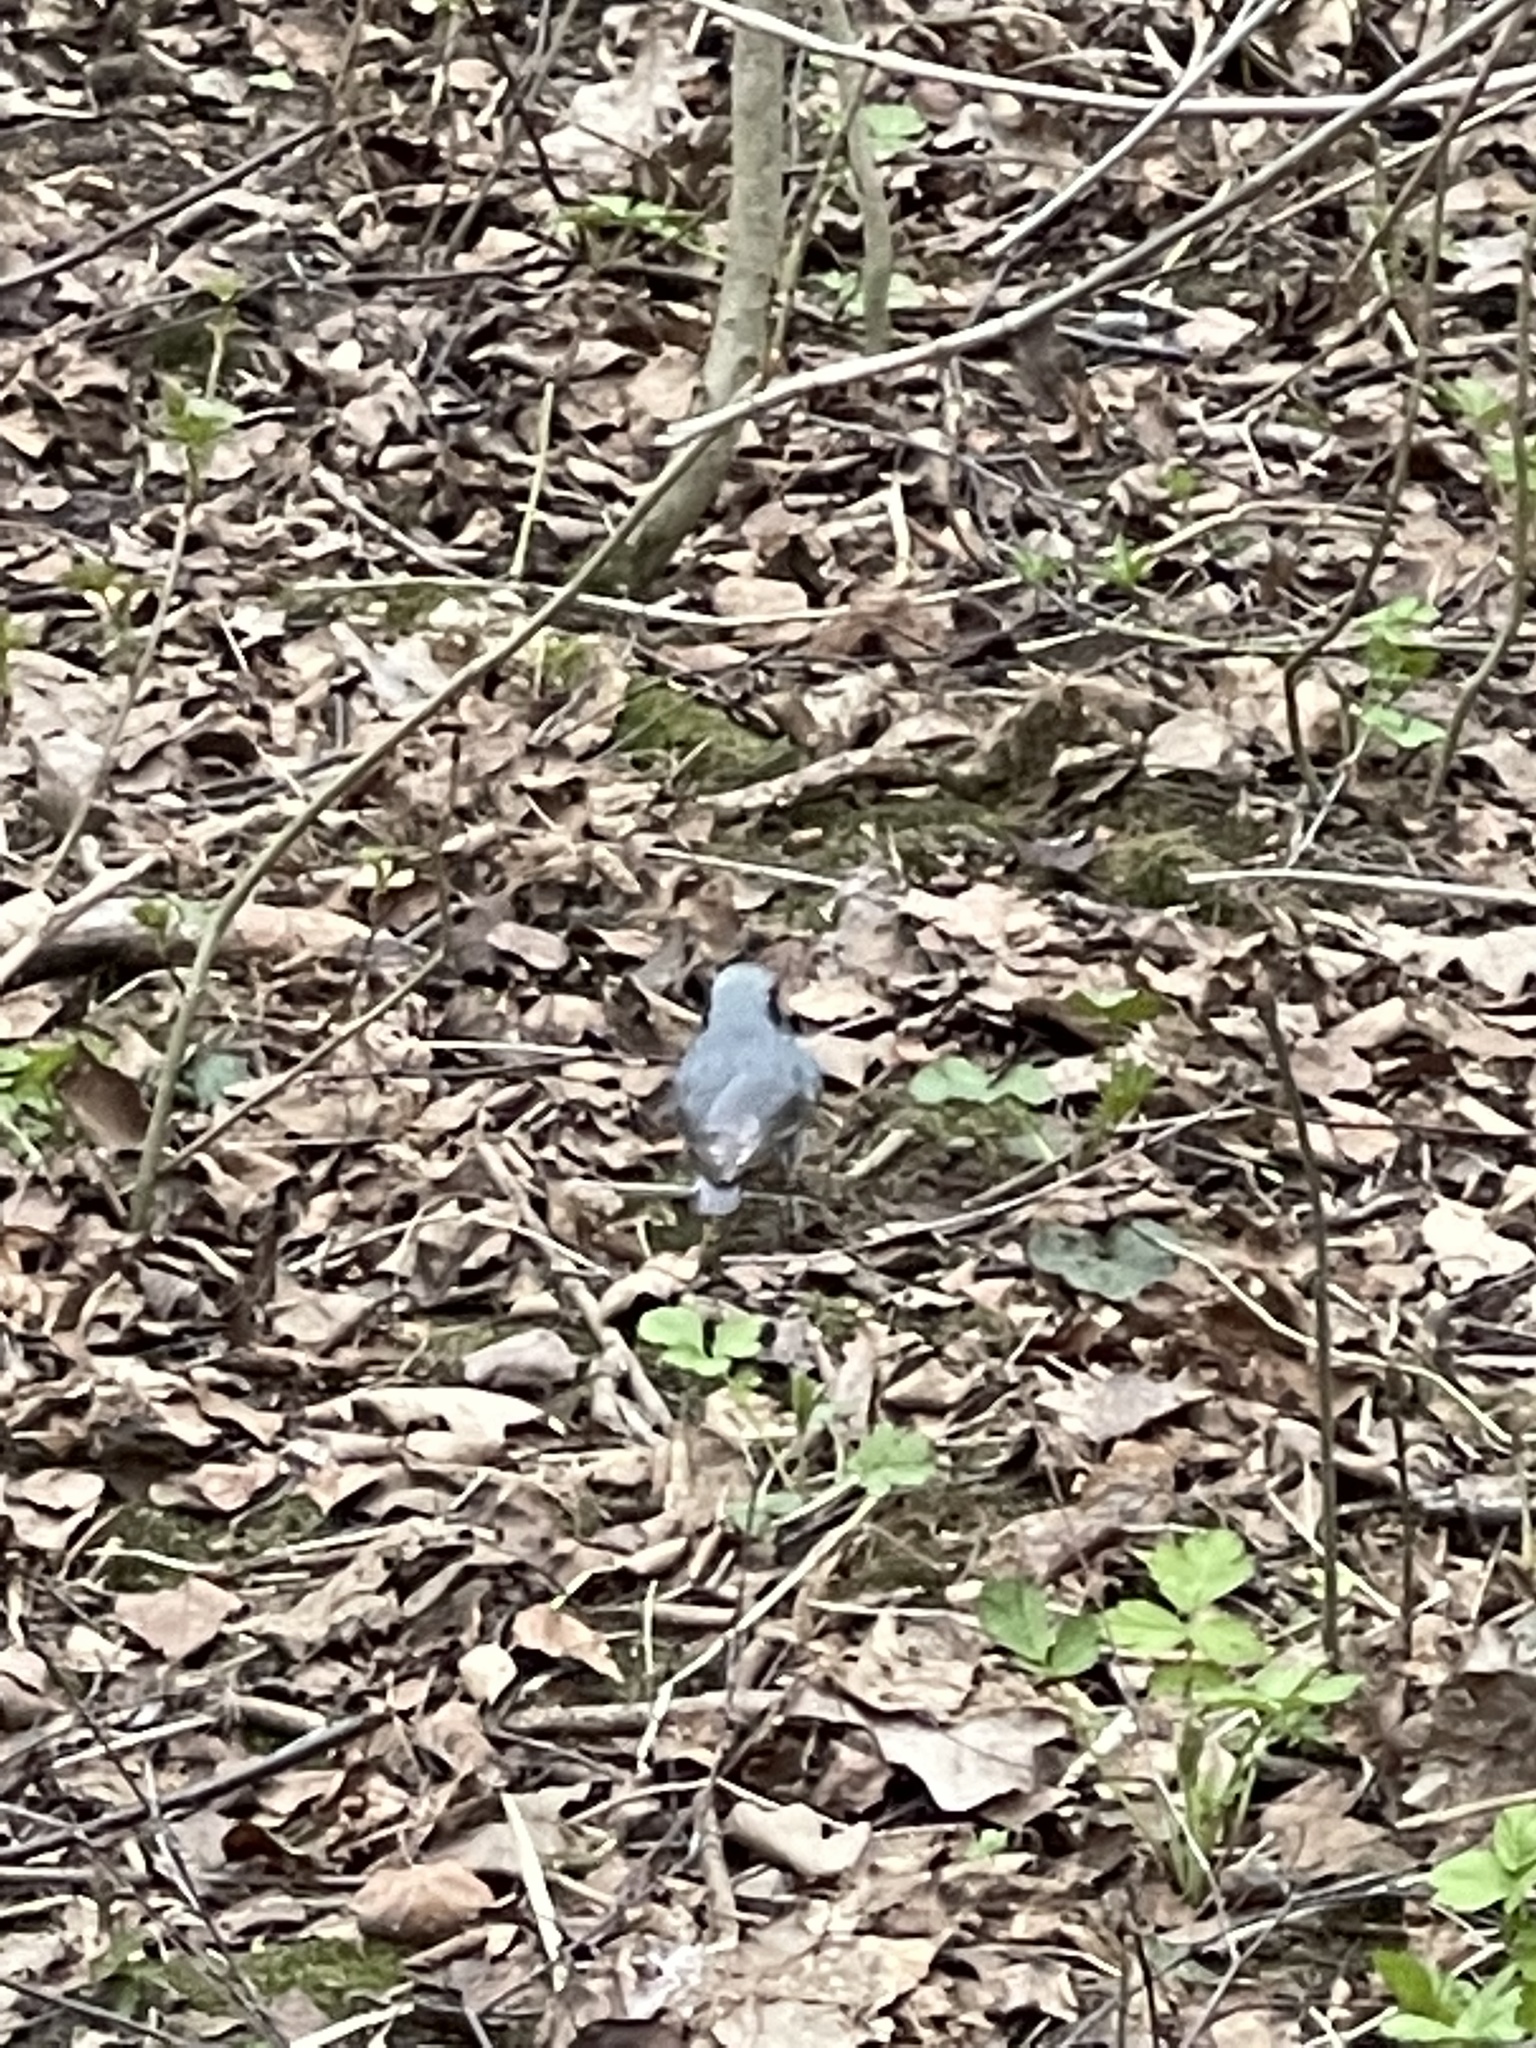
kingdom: Animalia
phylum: Chordata
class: Aves
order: Passeriformes
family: Sittidae
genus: Sitta
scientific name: Sitta europaea
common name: Eurasian nuthatch
